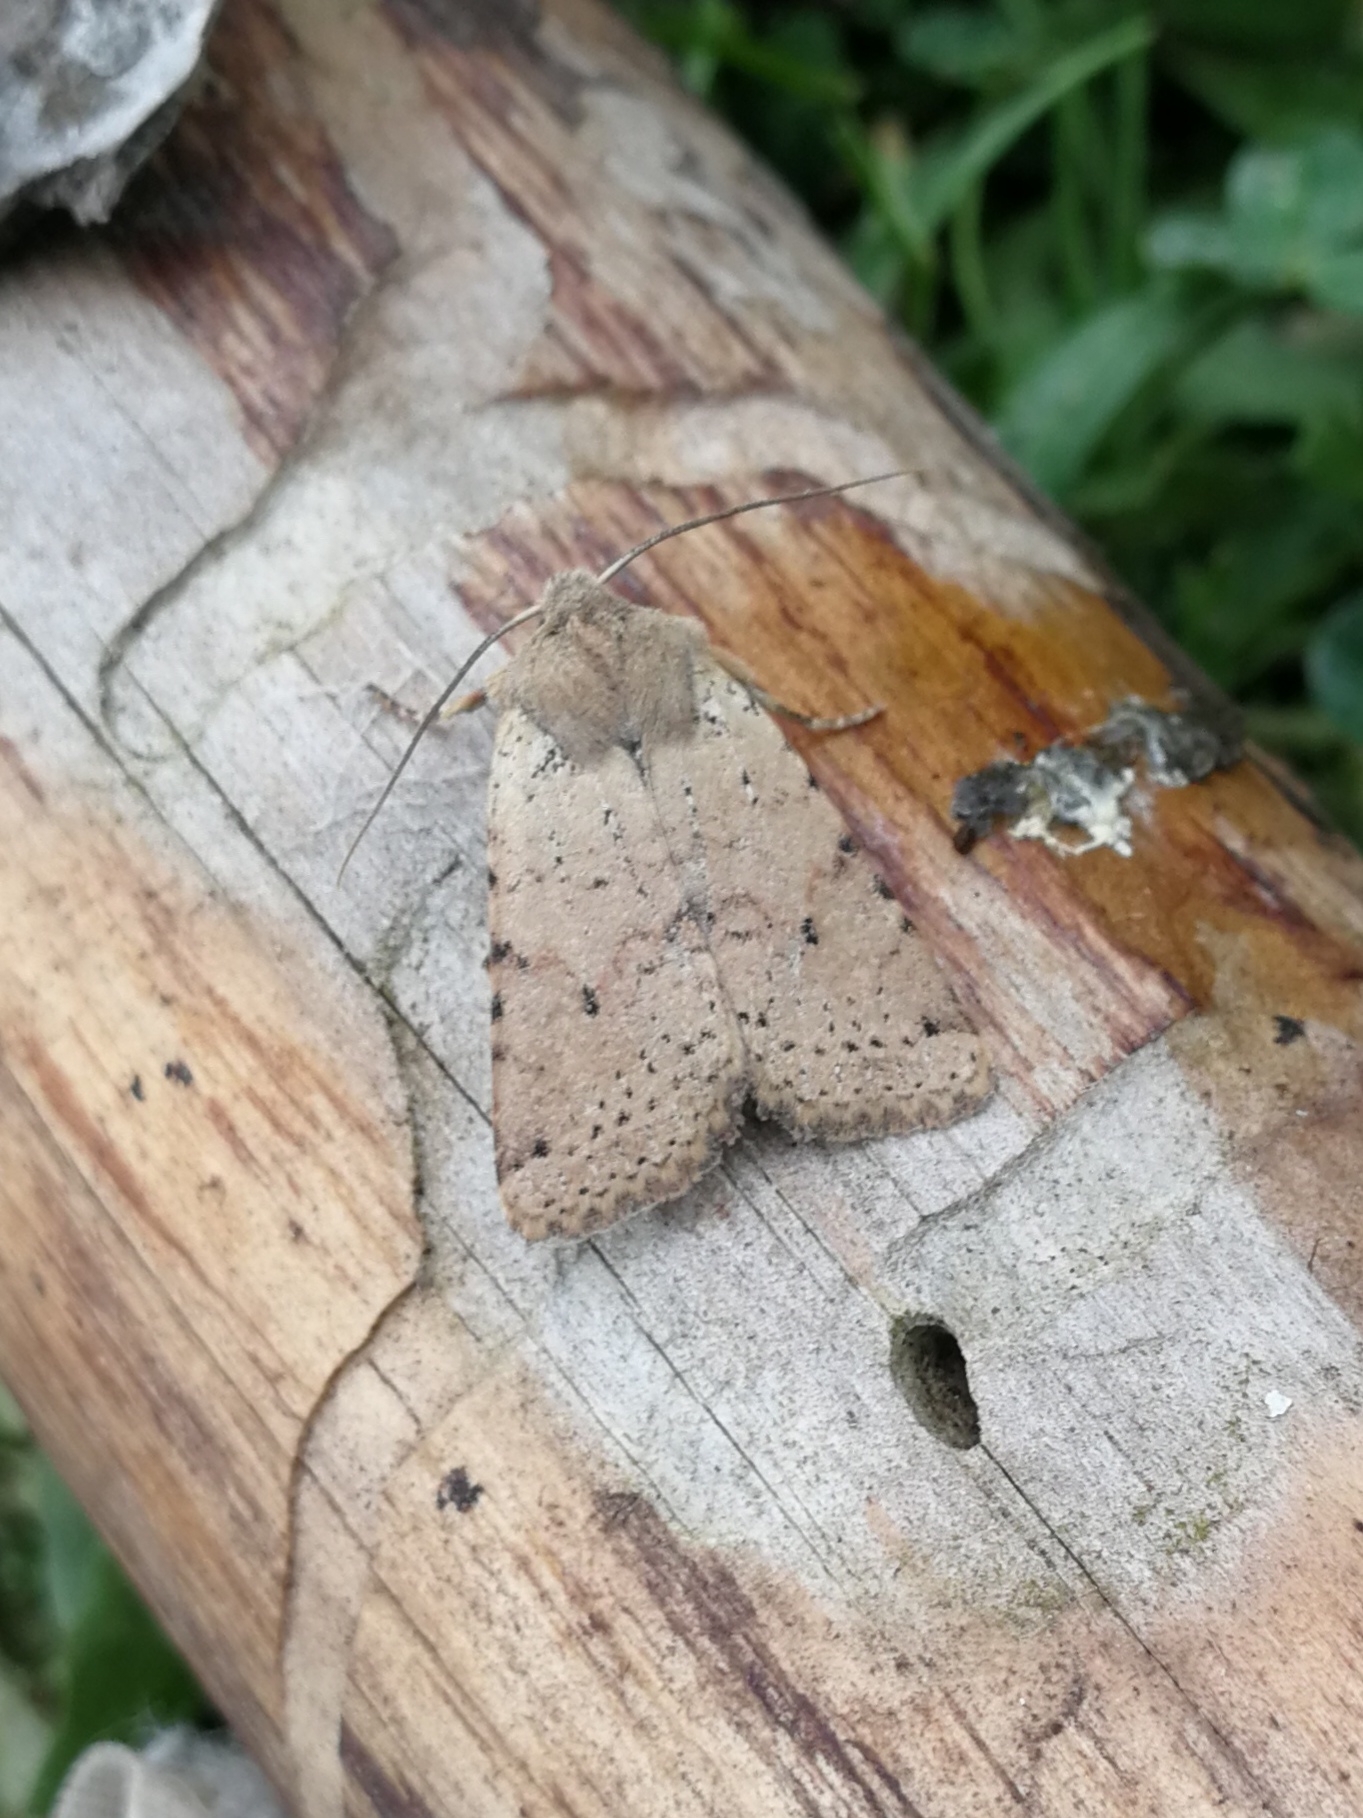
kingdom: Animalia
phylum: Arthropoda
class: Insecta
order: Lepidoptera
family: Noctuidae
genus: Agrochola
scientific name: Agrochola ruticilla
